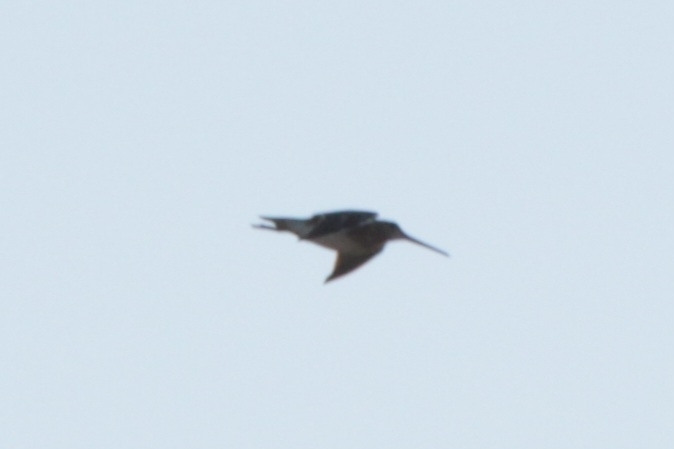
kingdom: Animalia
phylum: Chordata
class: Aves
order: Charadriiformes
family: Scolopacidae
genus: Gallinago
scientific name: Gallinago gallinago
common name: Common snipe
